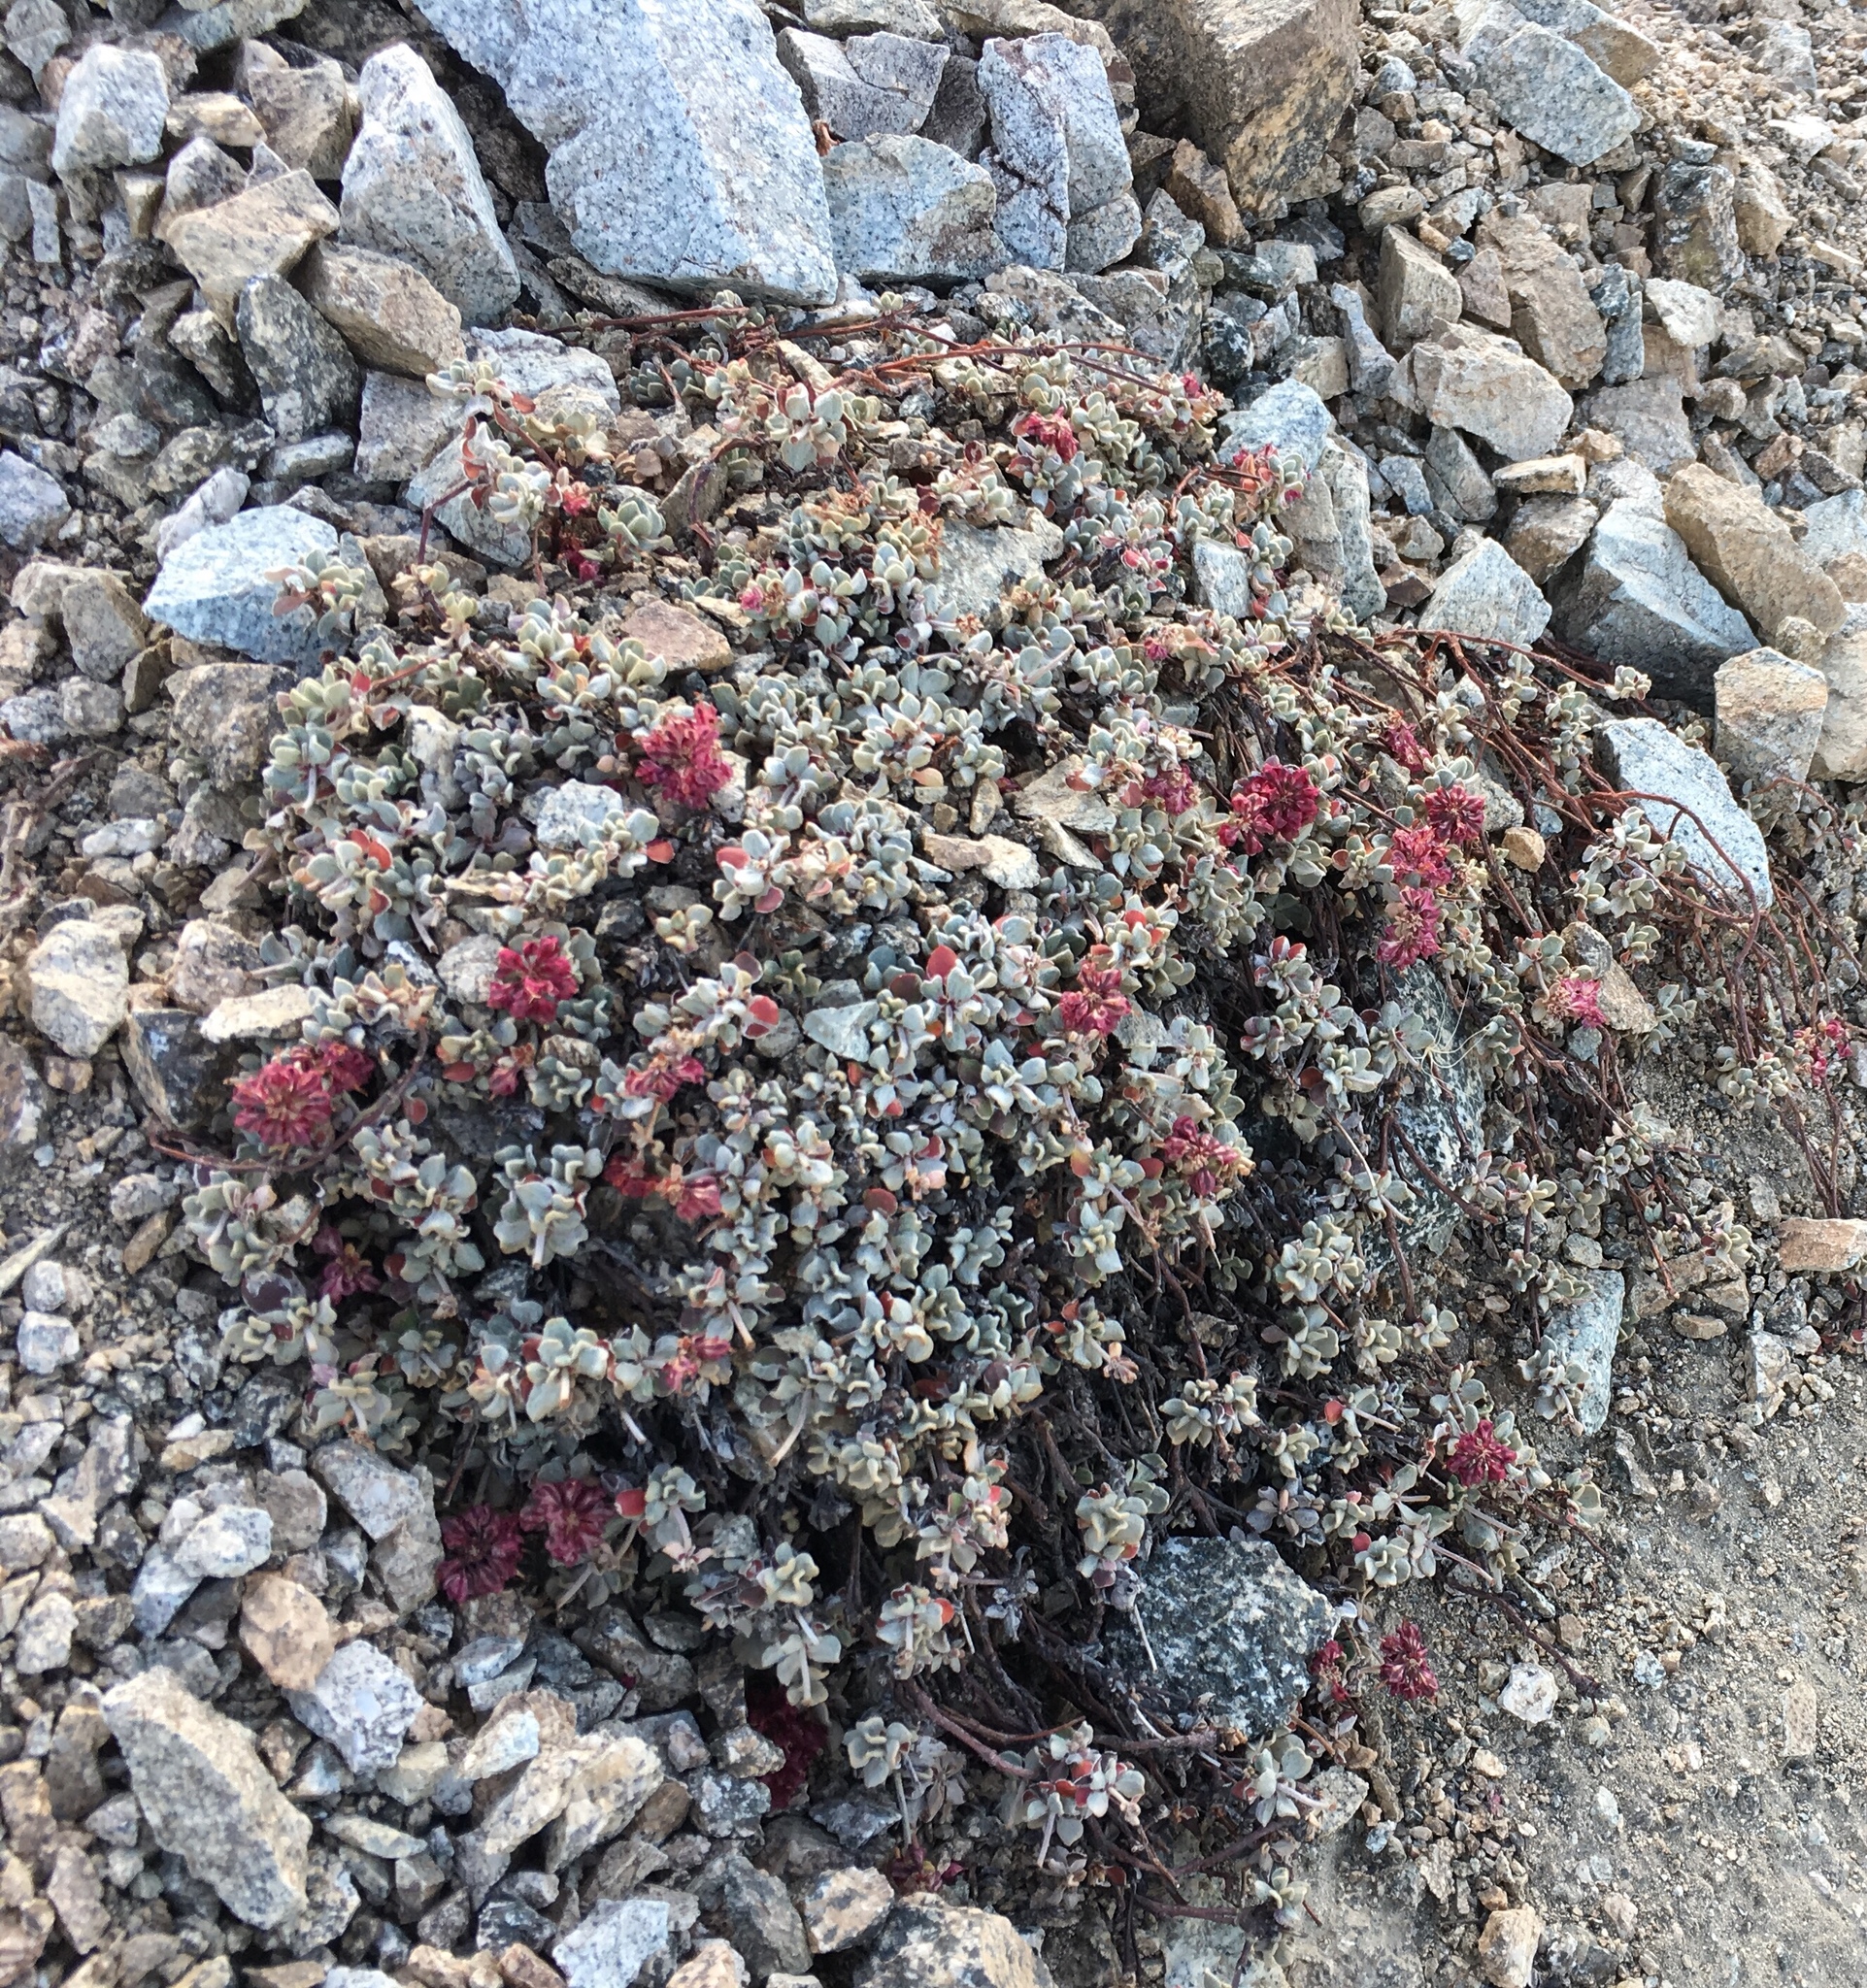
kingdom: Plantae
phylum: Tracheophyta
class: Magnoliopsida
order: Caryophyllales
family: Polygonaceae
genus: Eriogonum
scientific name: Eriogonum umbellatum
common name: Sulfur-buckwheat
